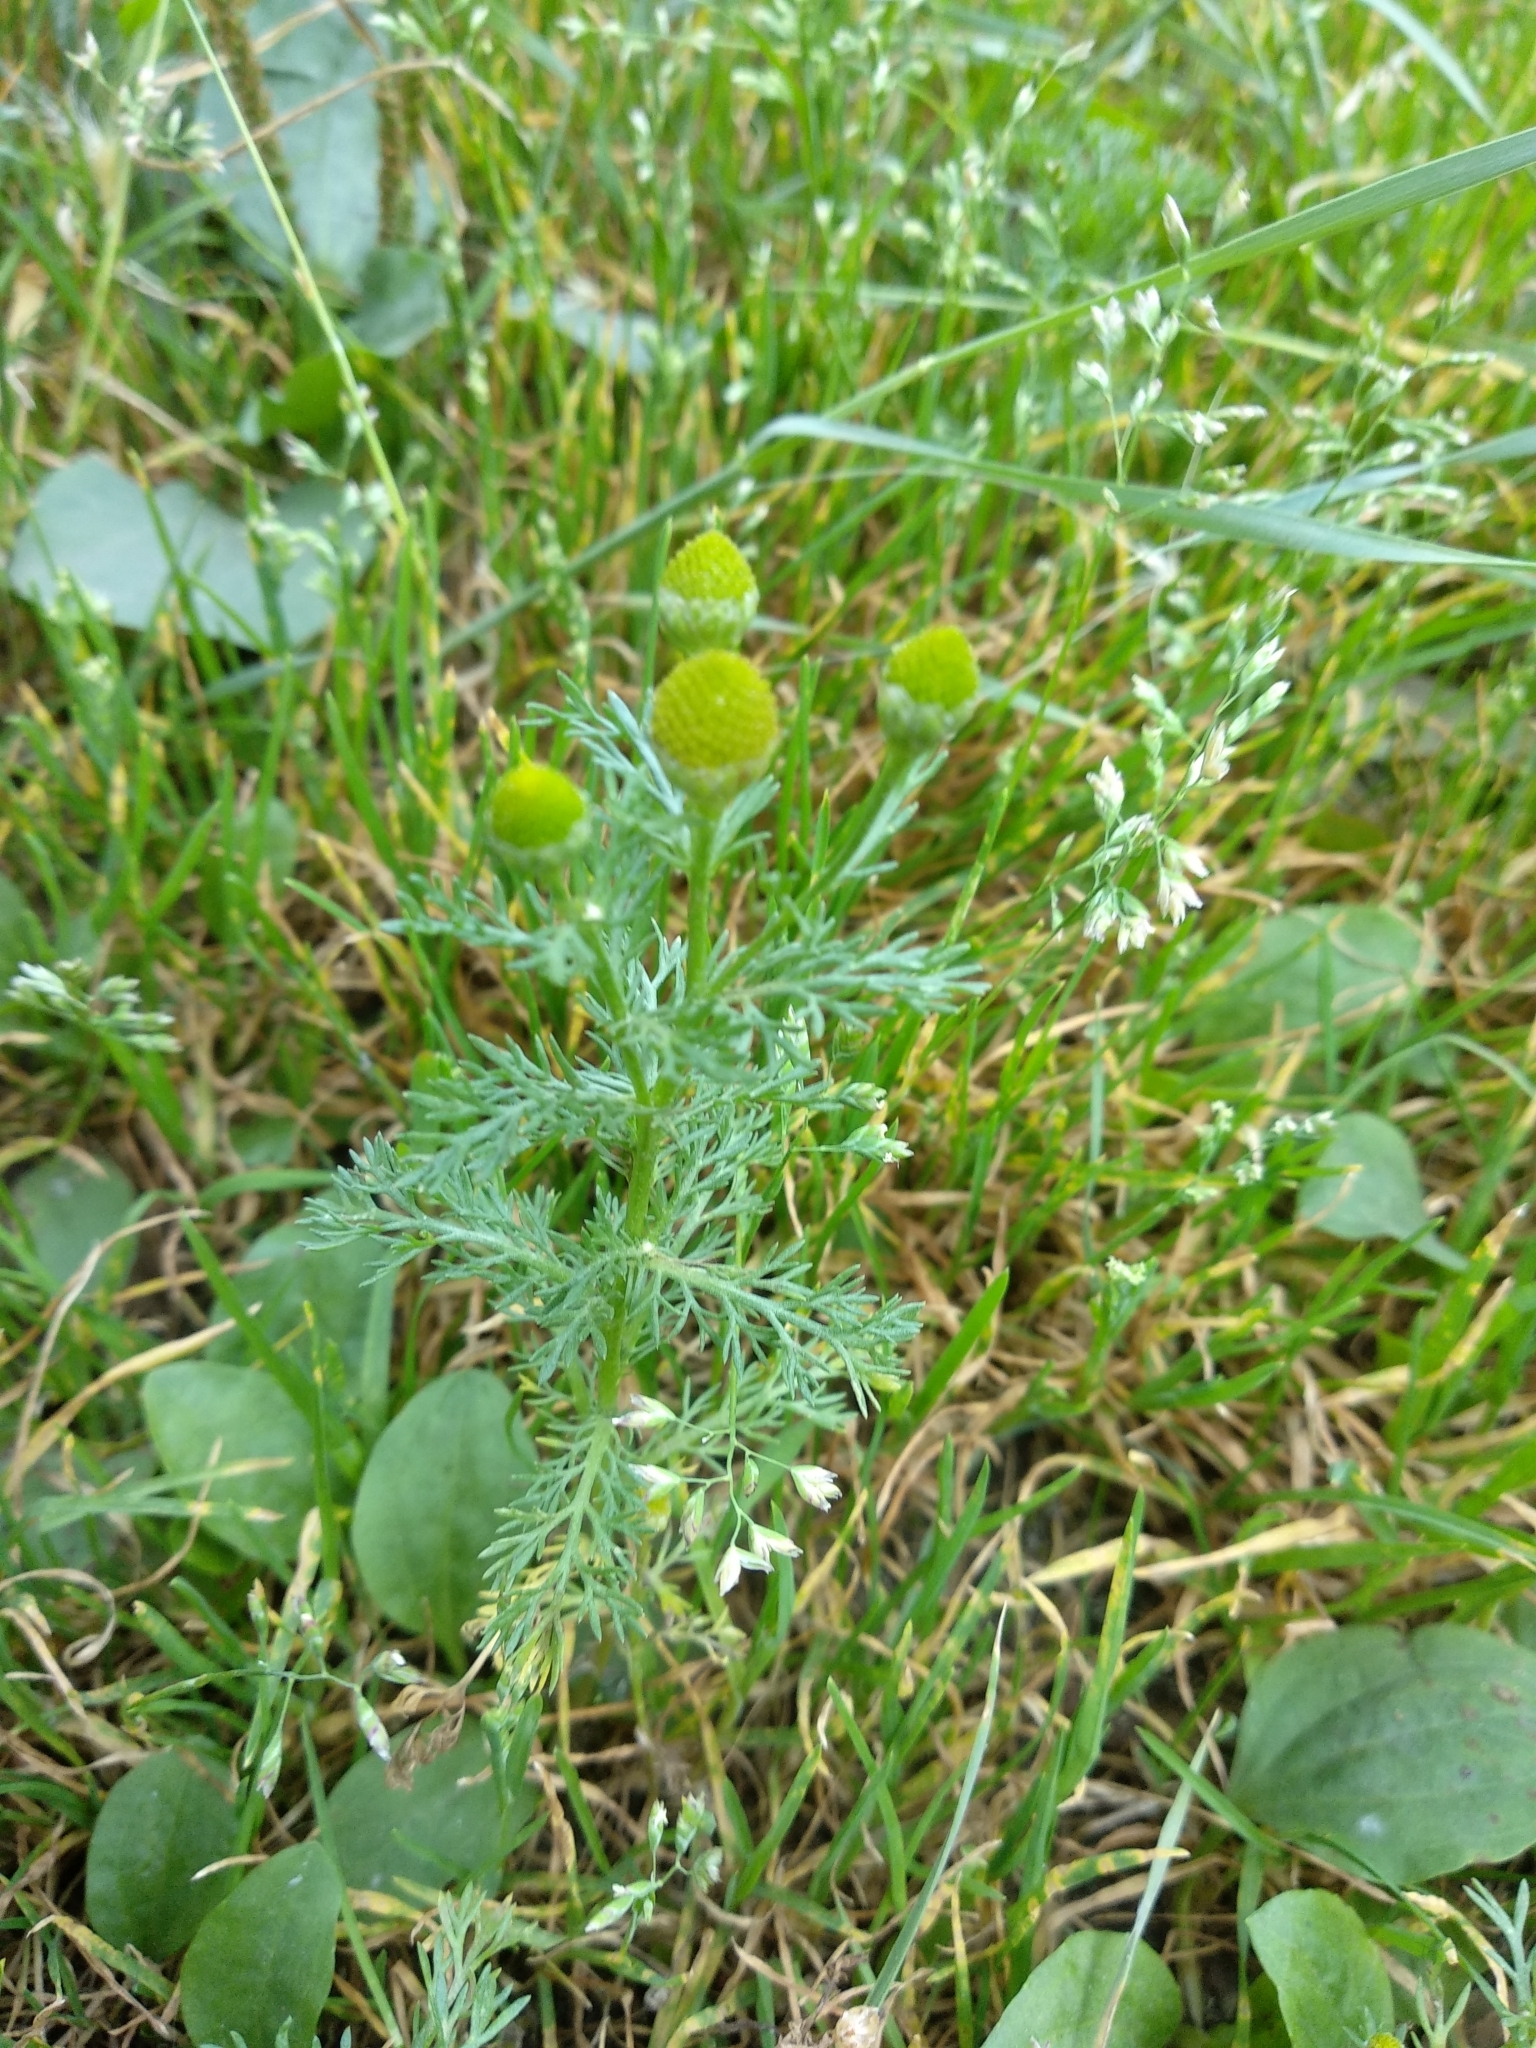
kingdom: Plantae
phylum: Tracheophyta
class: Magnoliopsida
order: Asterales
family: Asteraceae
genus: Matricaria
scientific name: Matricaria discoidea
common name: Disc mayweed
